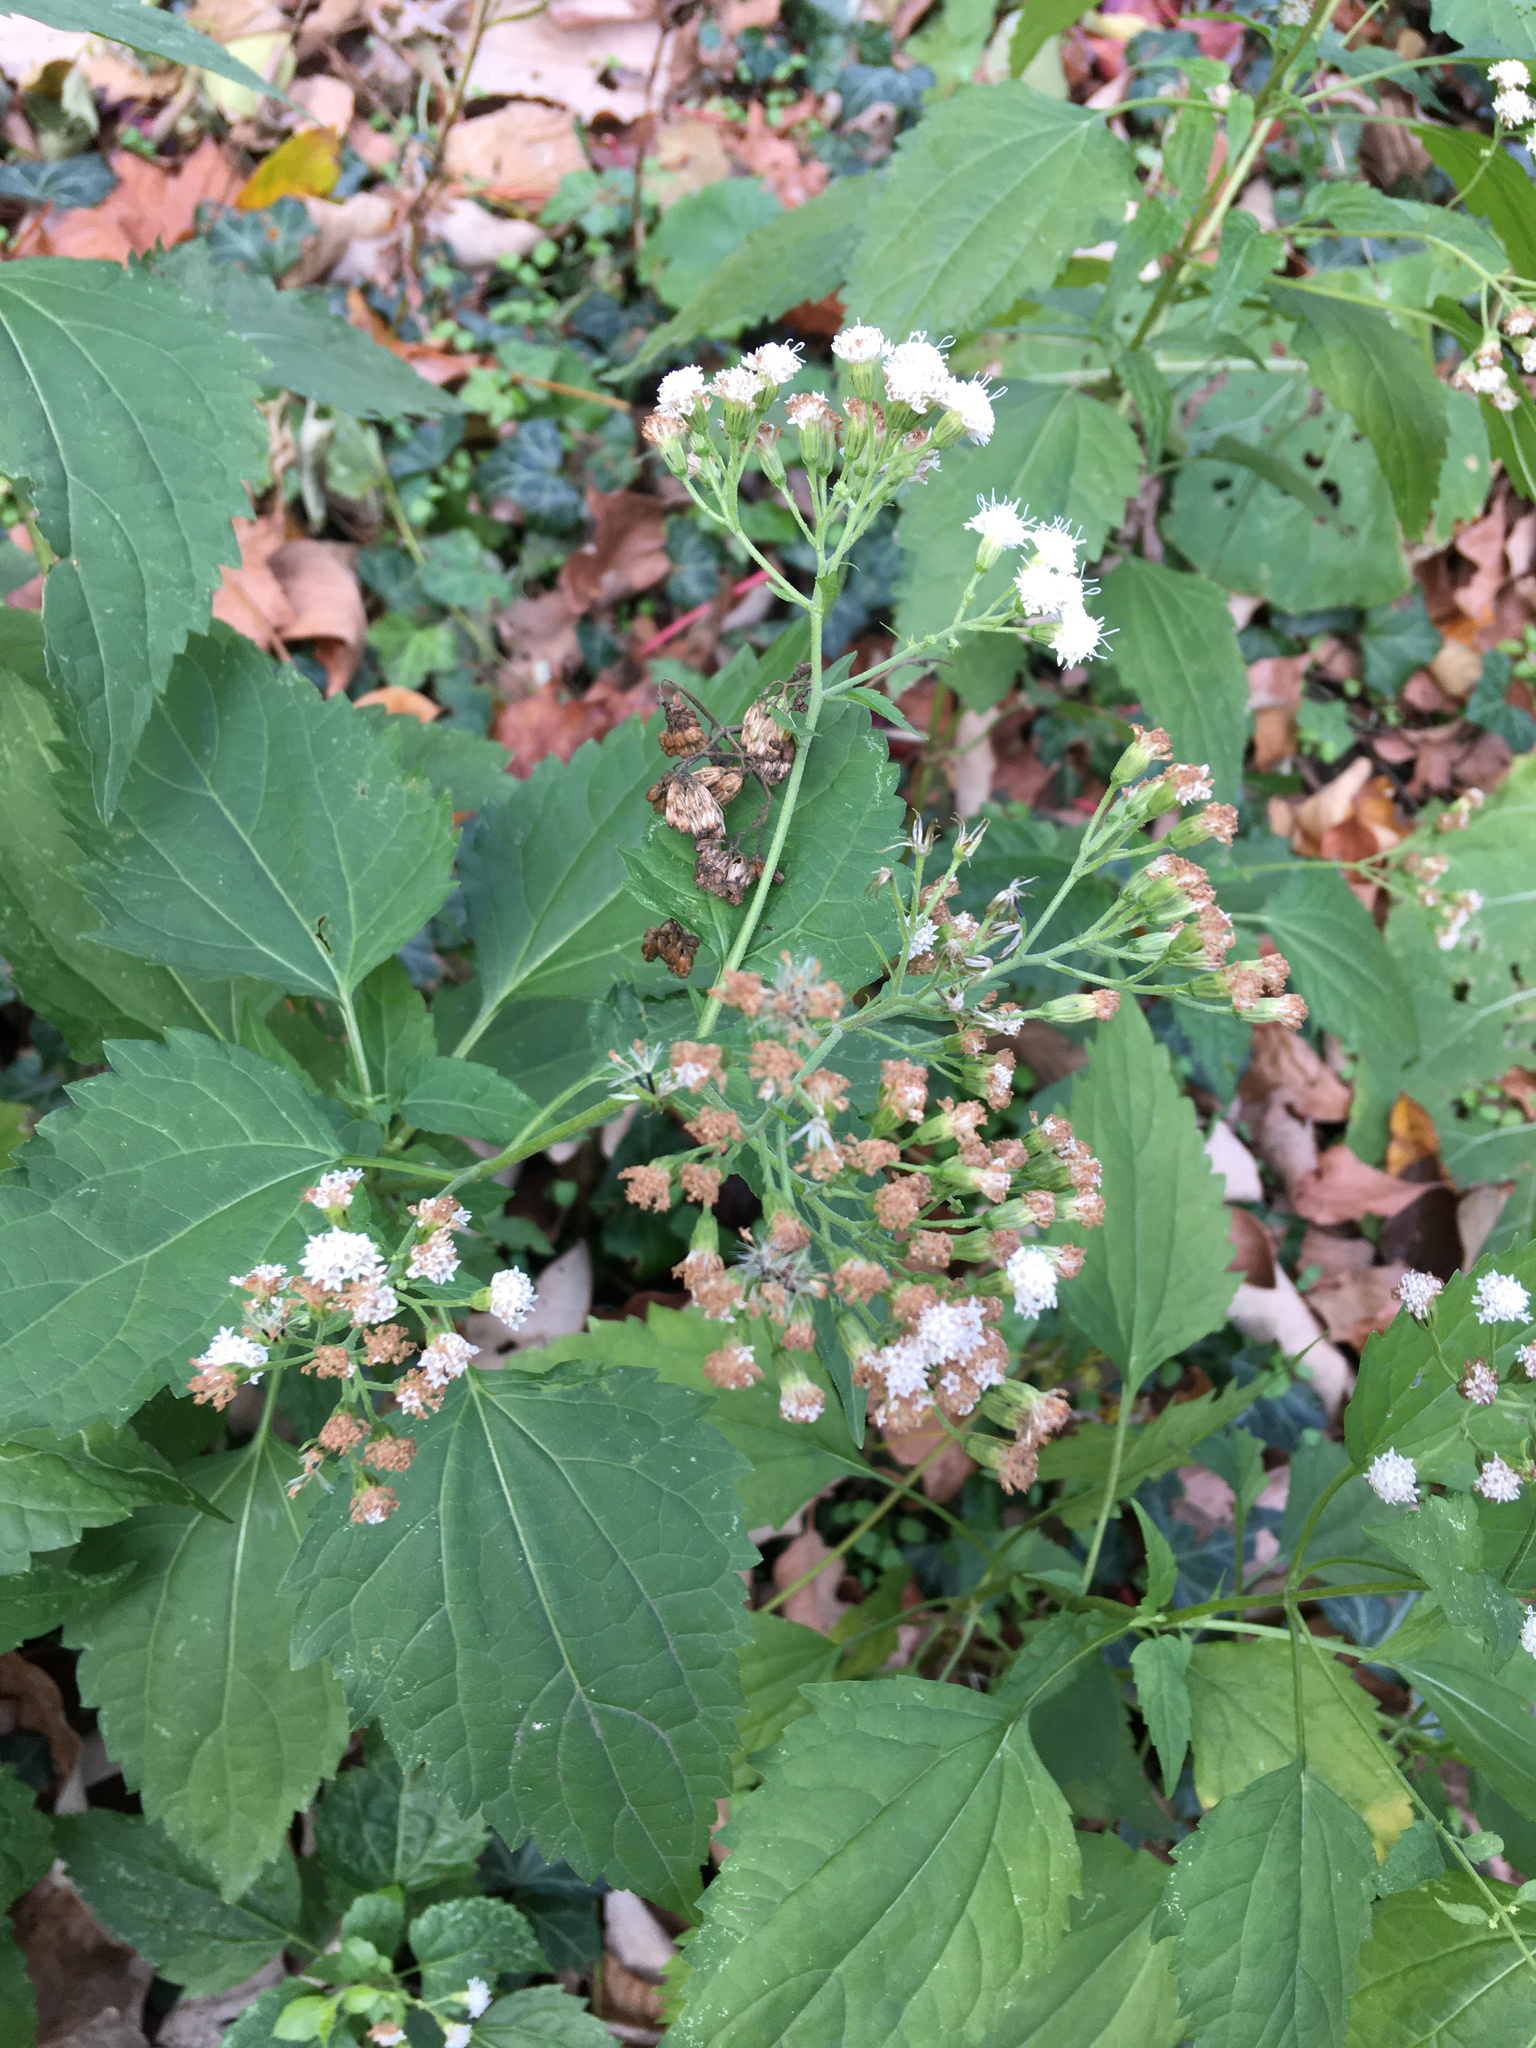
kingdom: Plantae
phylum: Tracheophyta
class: Magnoliopsida
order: Asterales
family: Asteraceae
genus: Ageratina
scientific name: Ageratina altissima
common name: White snakeroot
